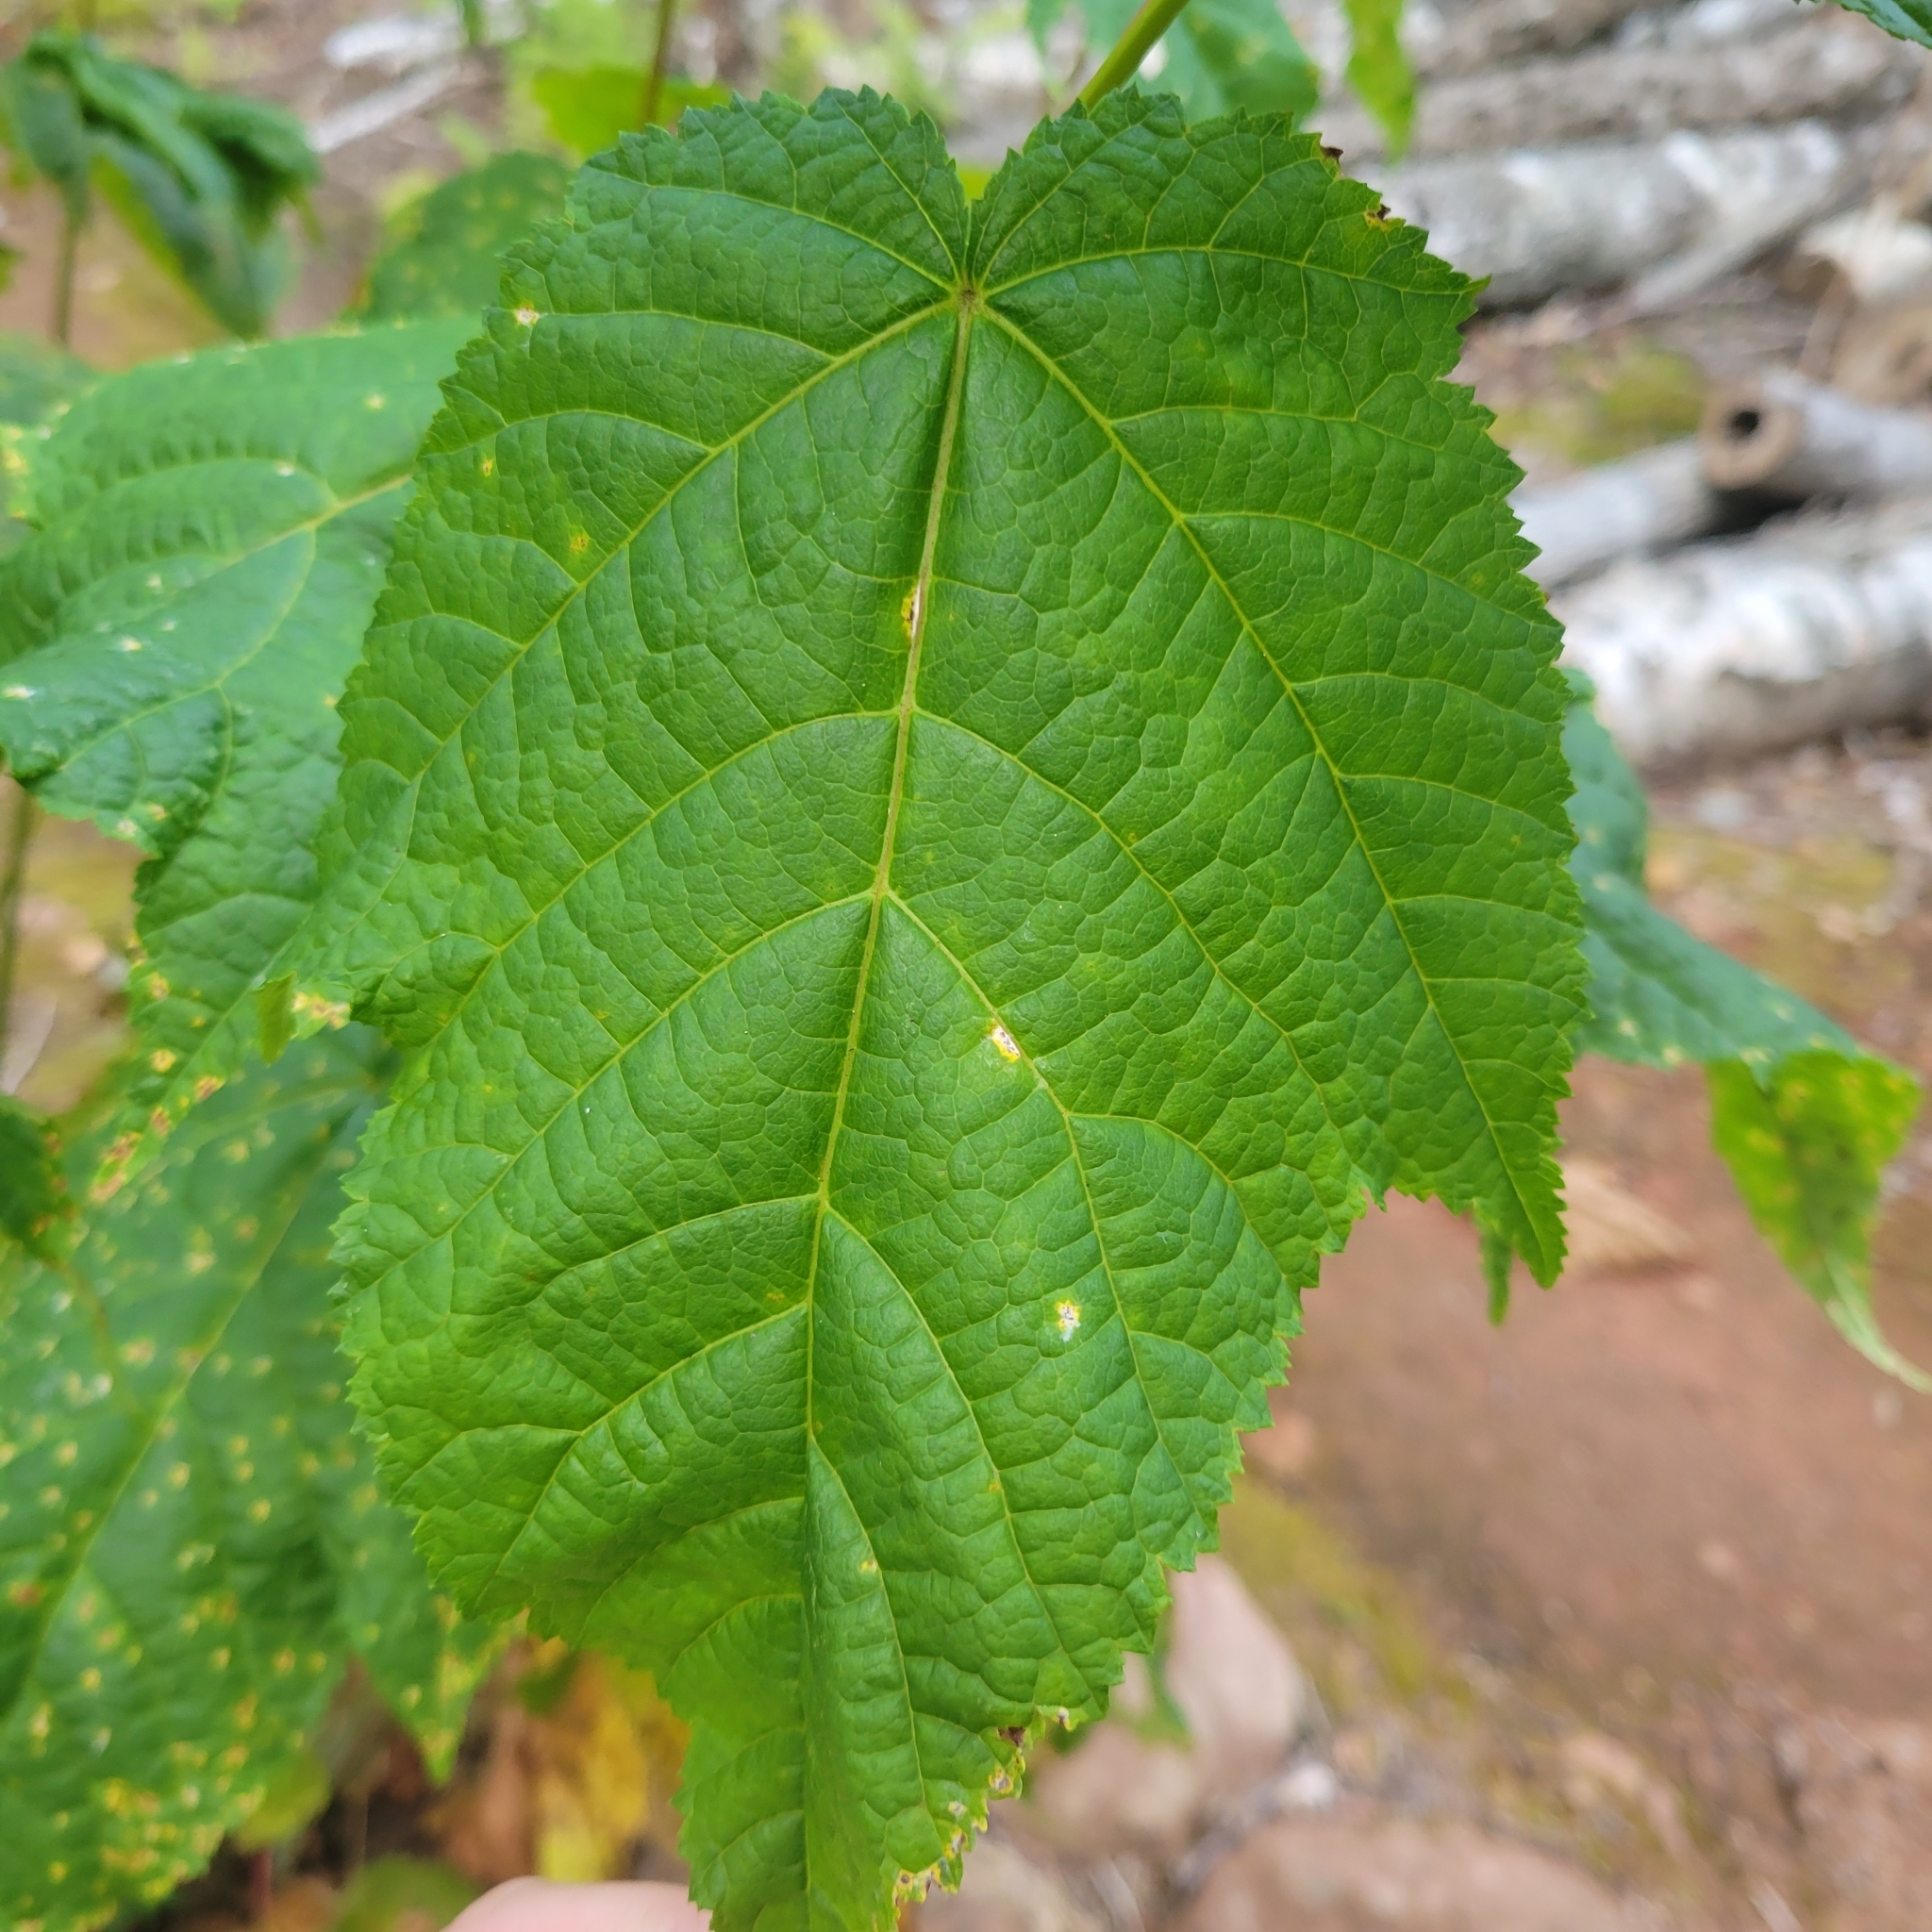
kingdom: Plantae
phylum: Tracheophyta
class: Magnoliopsida
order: Sapindales
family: Sapindaceae
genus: Acer
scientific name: Acer pensylvanicum
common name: Moosewood
